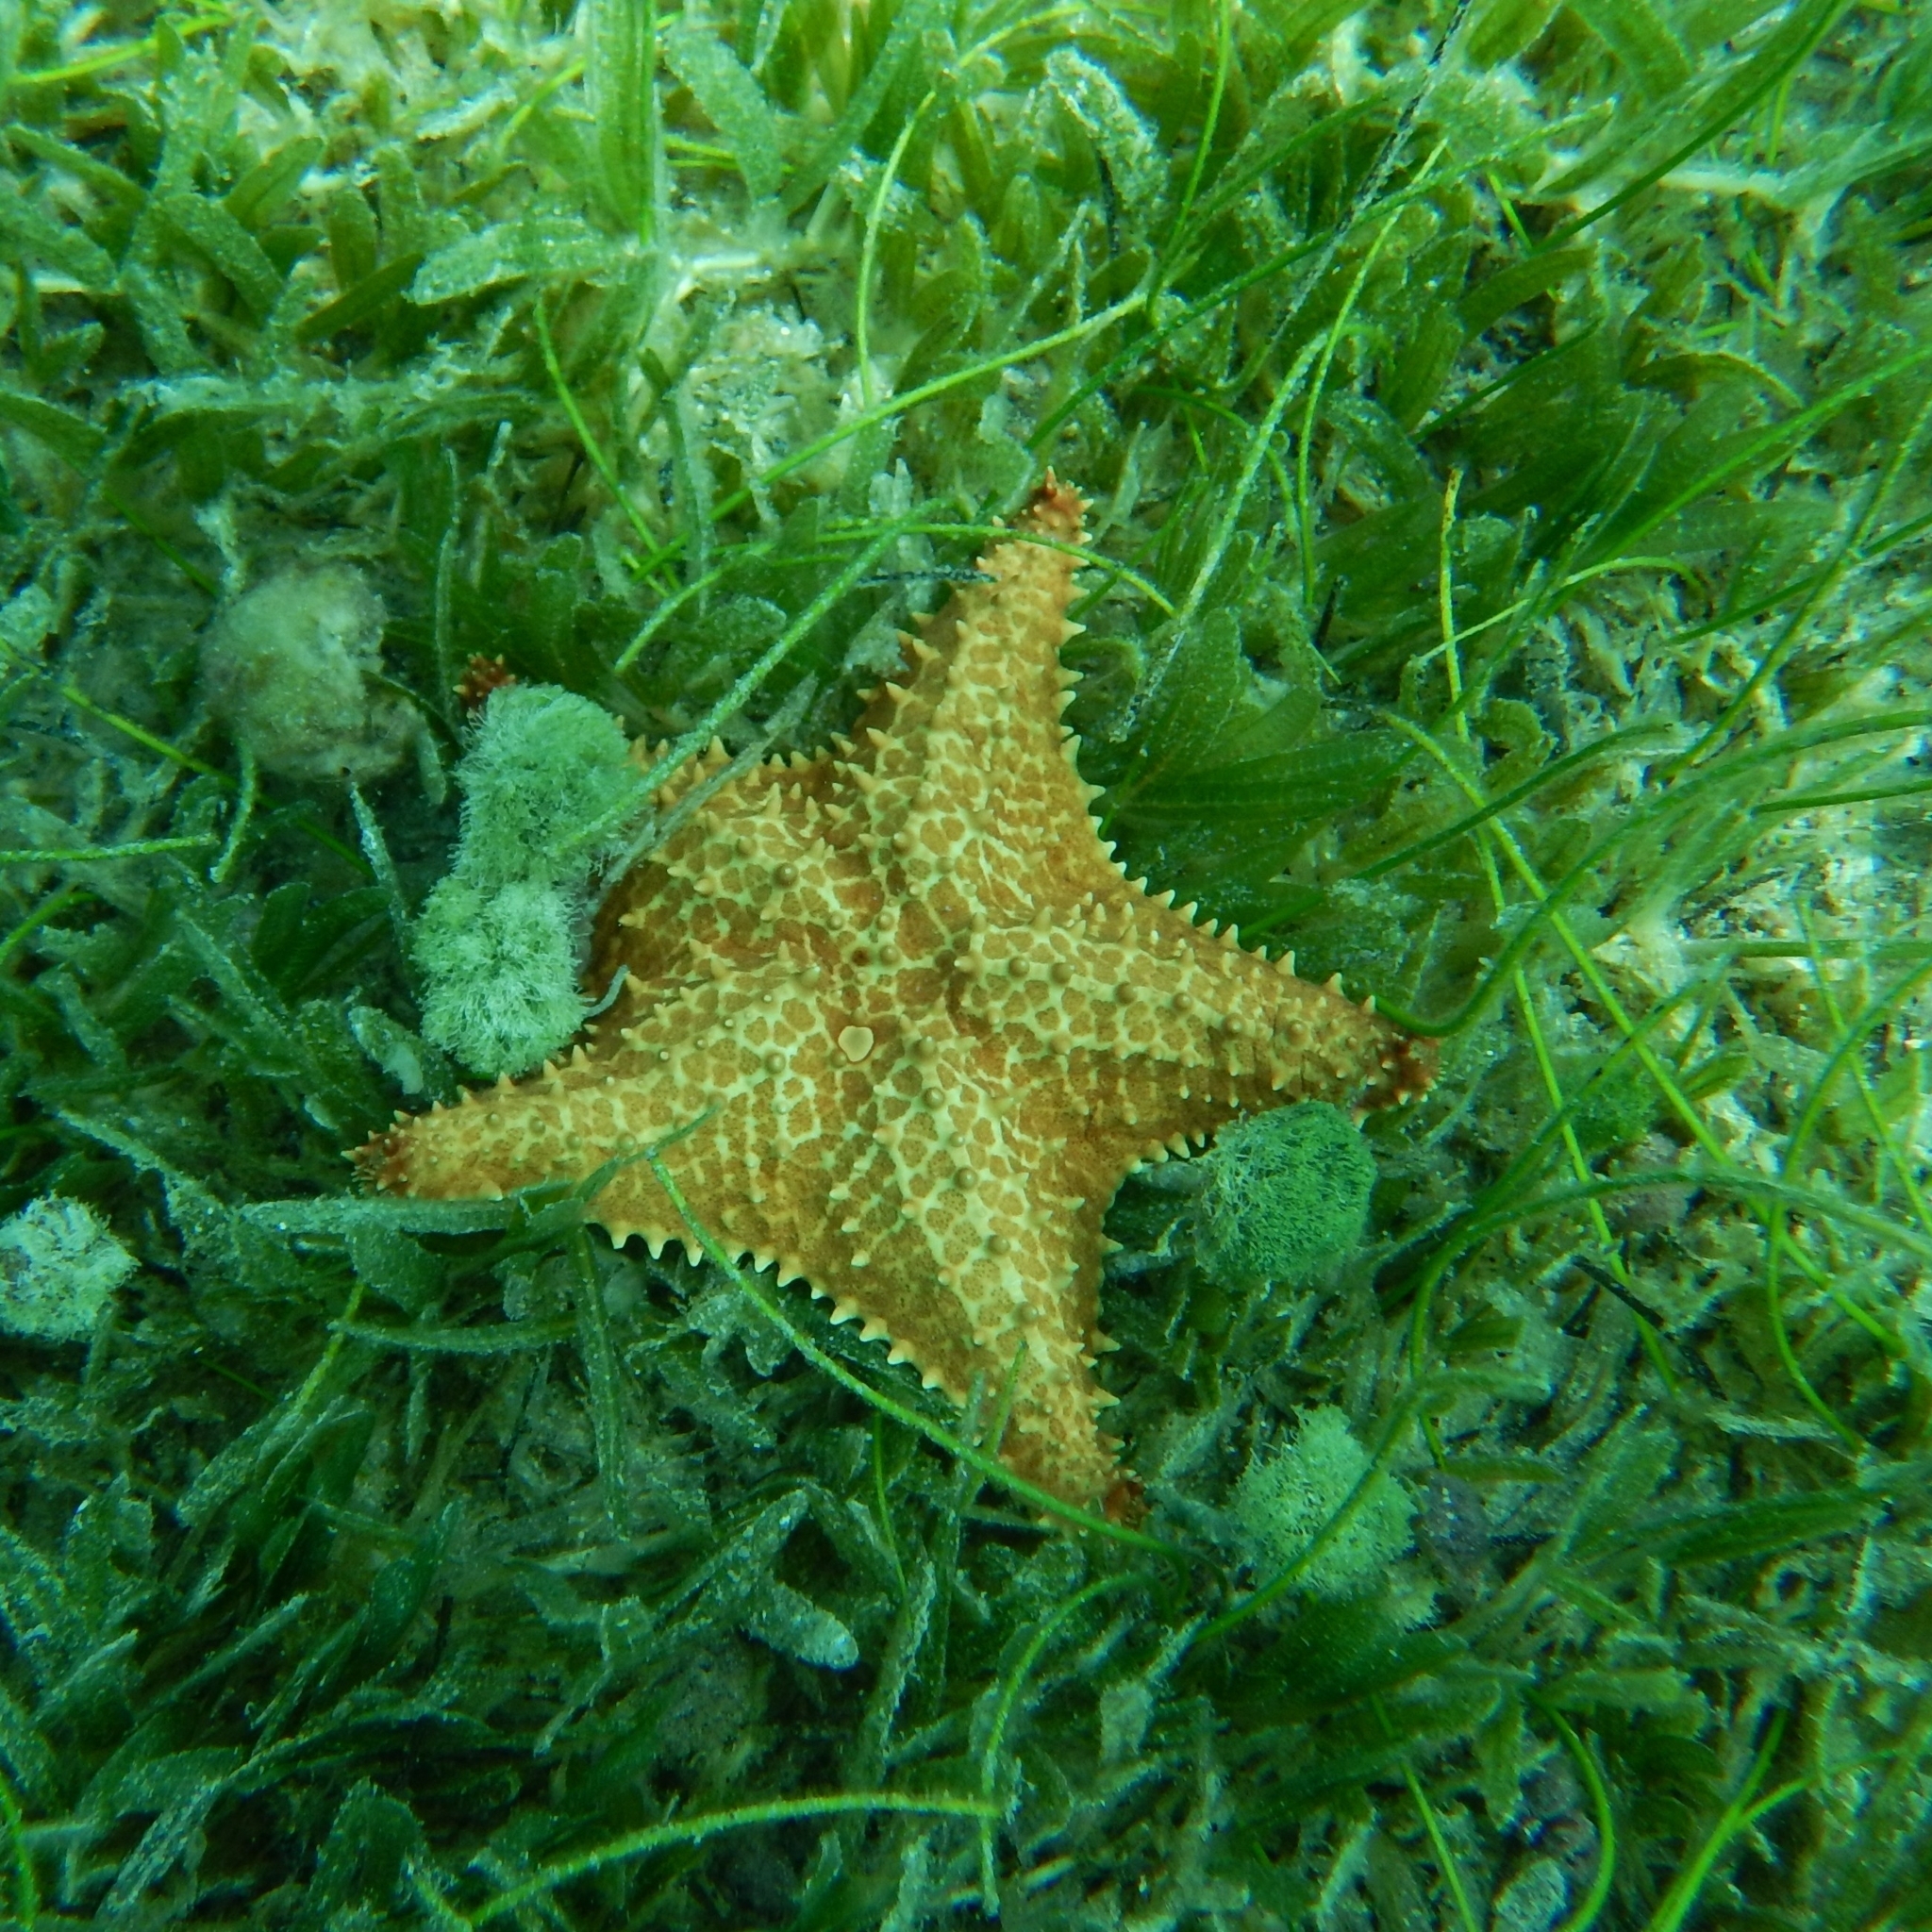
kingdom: Animalia
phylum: Echinodermata
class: Asteroidea
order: Valvatida
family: Oreasteridae
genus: Oreaster
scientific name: Oreaster reticulatus
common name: Cushion sea star
